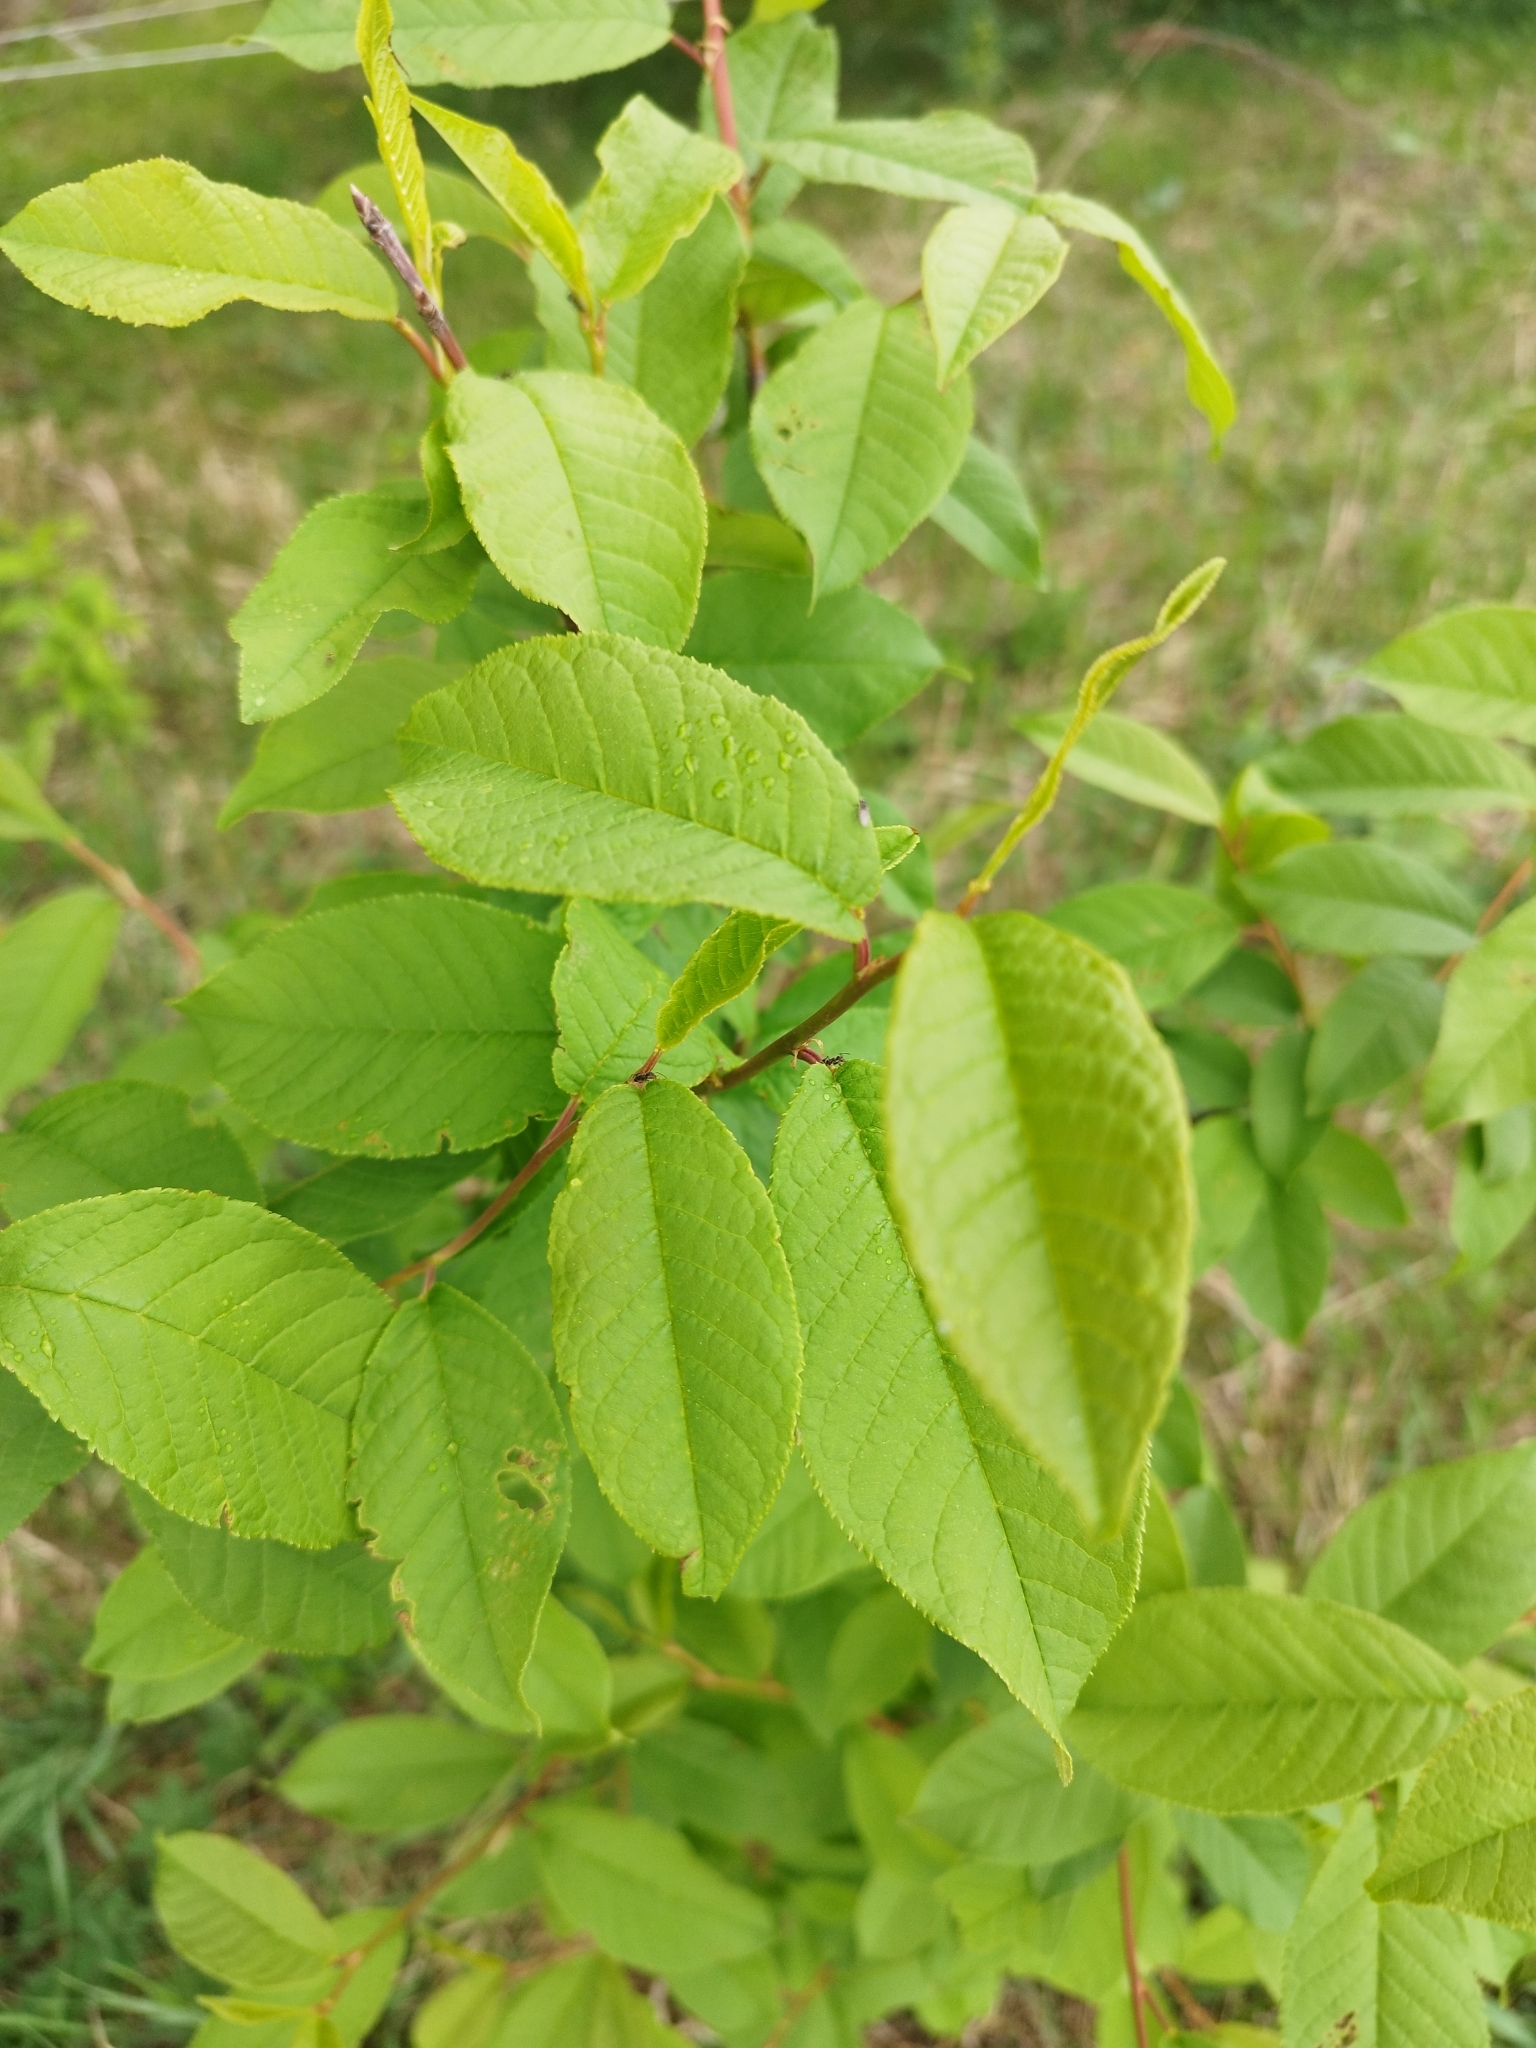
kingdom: Plantae
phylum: Tracheophyta
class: Magnoliopsida
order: Rosales
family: Rosaceae
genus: Prunus
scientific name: Prunus padus
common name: Bird cherry
